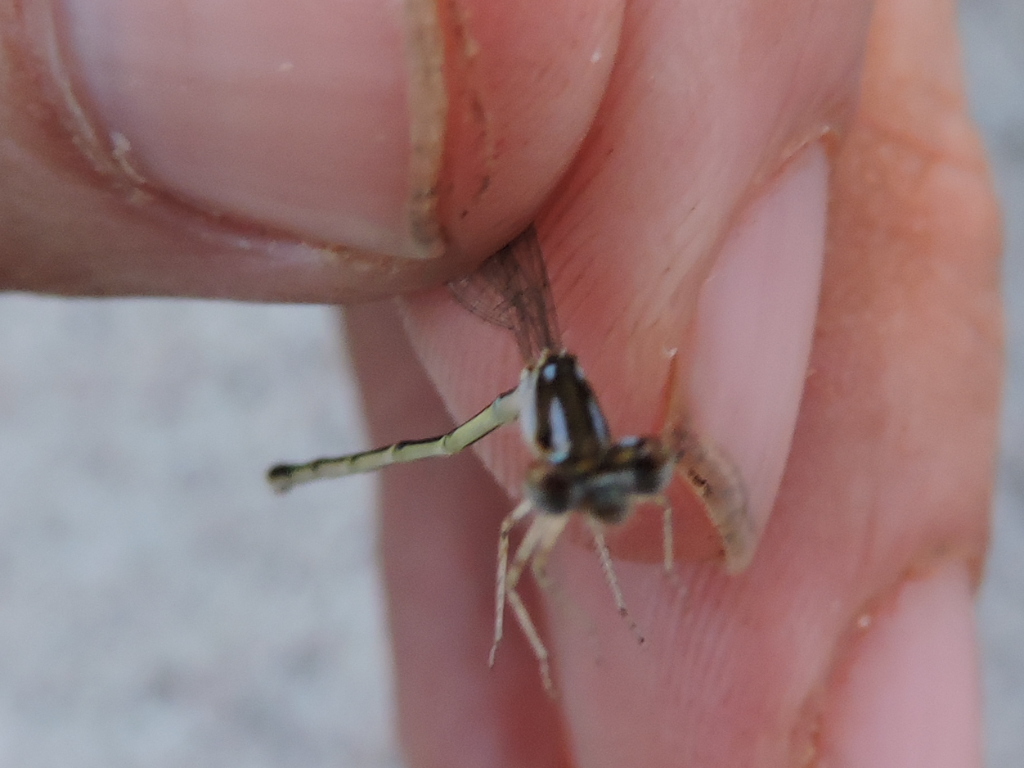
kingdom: Animalia
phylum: Arthropoda
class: Insecta
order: Odonata
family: Coenagrionidae
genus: Ischnura
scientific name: Ischnura posita
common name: Fragile forktail
